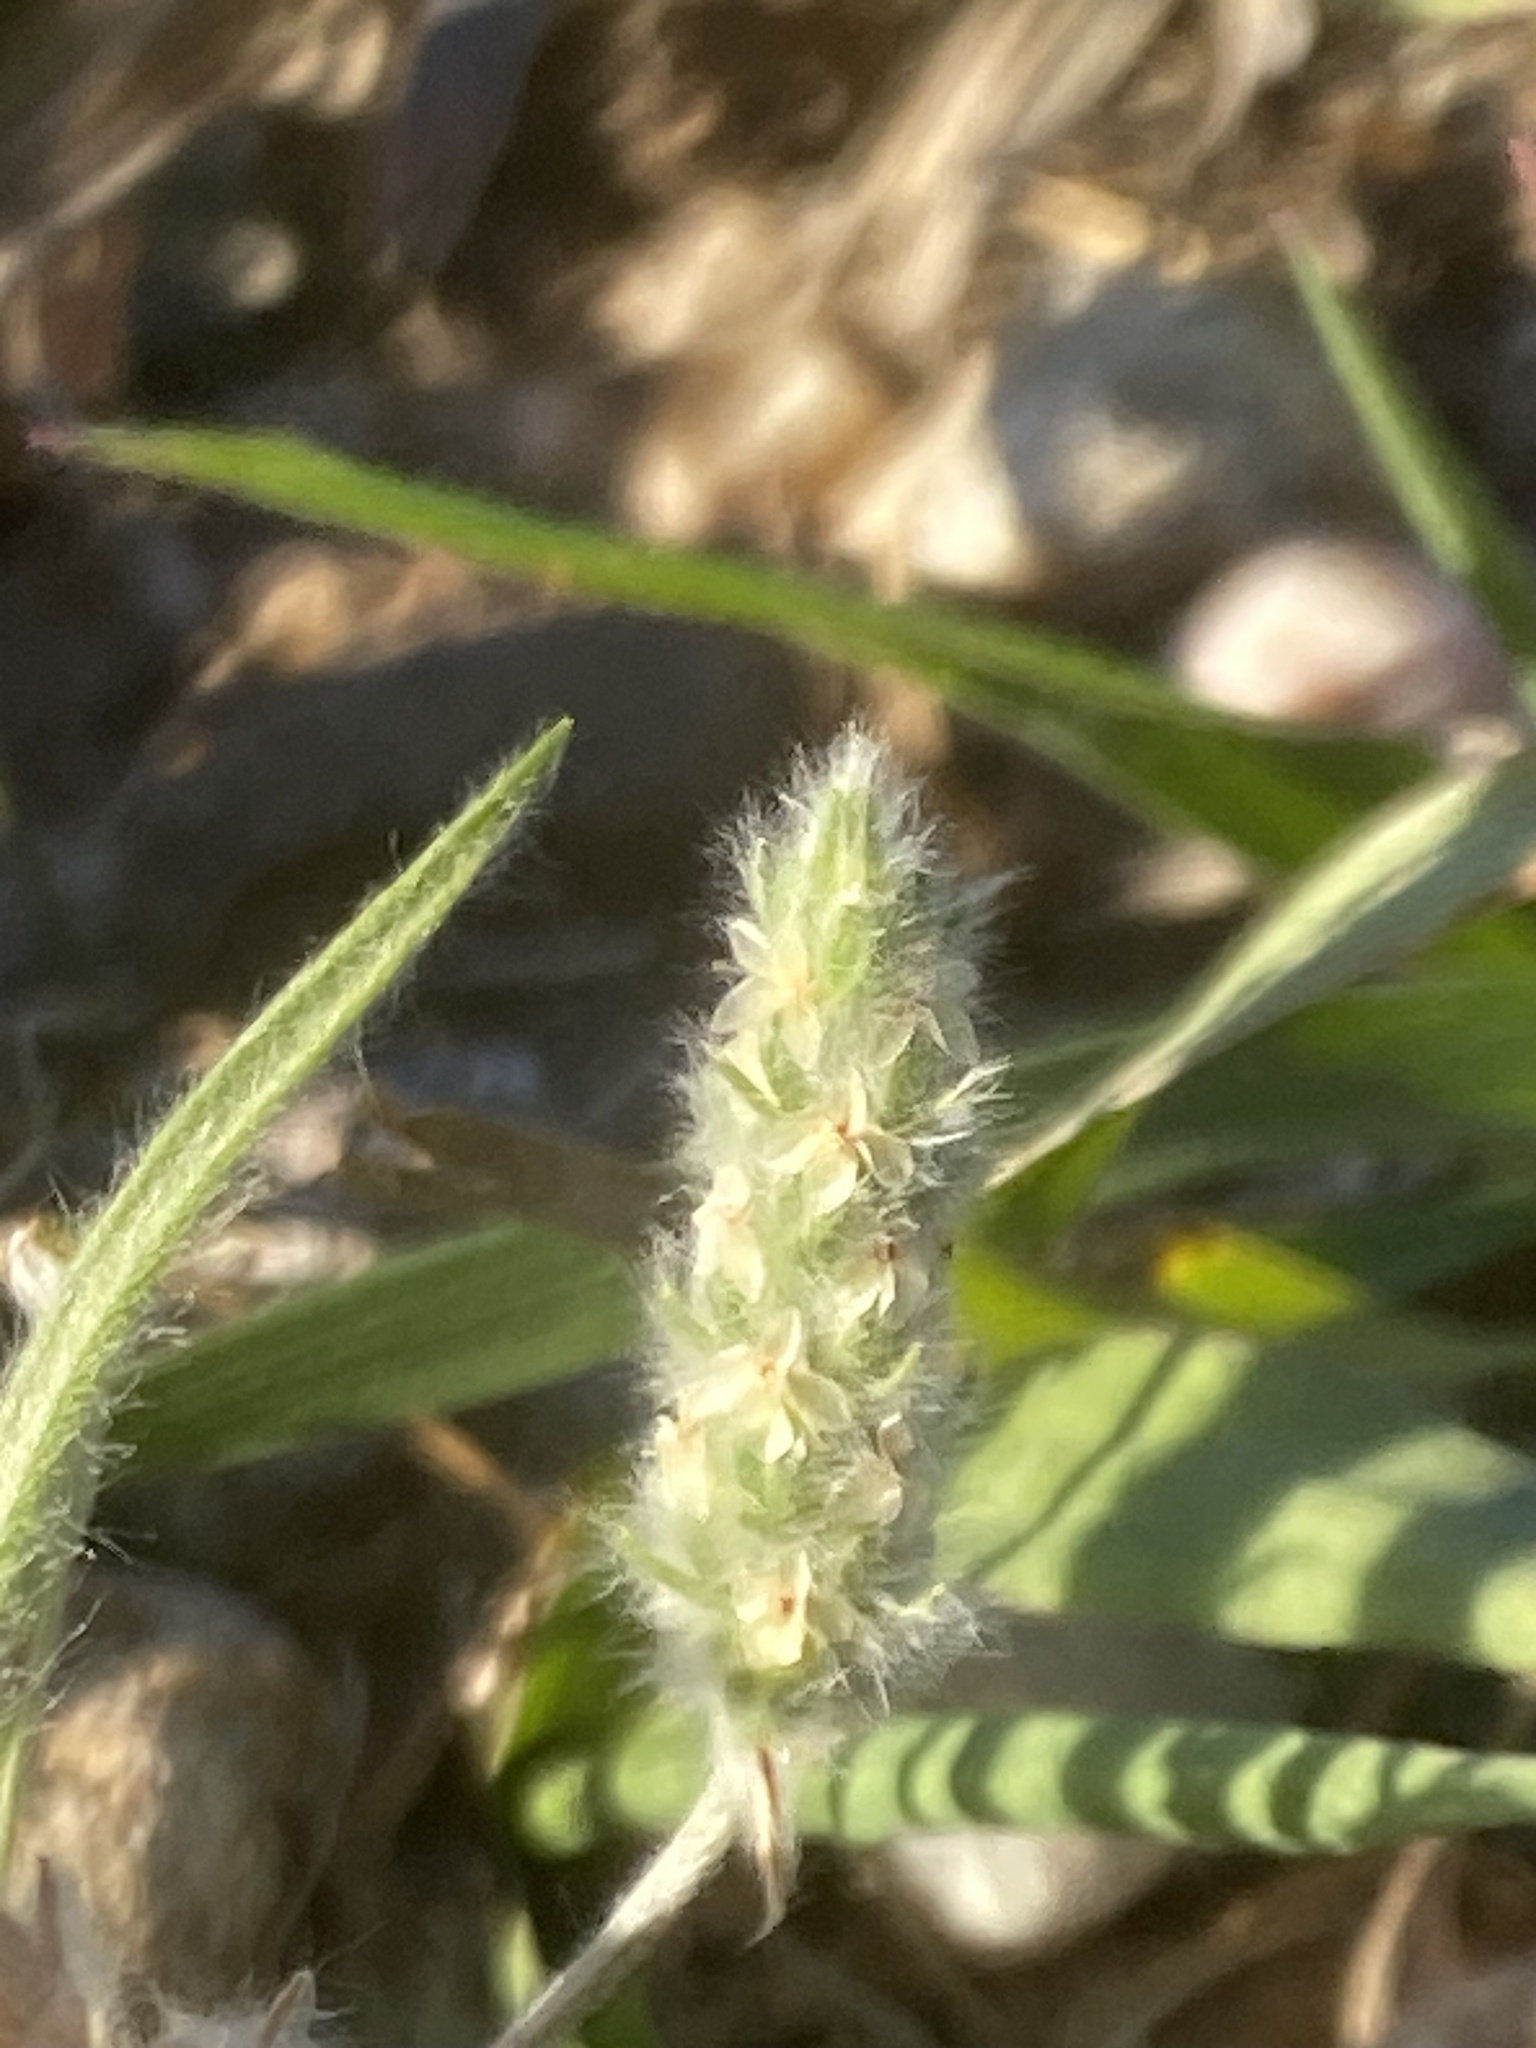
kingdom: Plantae
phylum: Tracheophyta
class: Magnoliopsida
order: Lamiales
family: Plantaginaceae
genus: Plantago
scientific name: Plantago patagonica
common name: Patagonia indian-wheat
